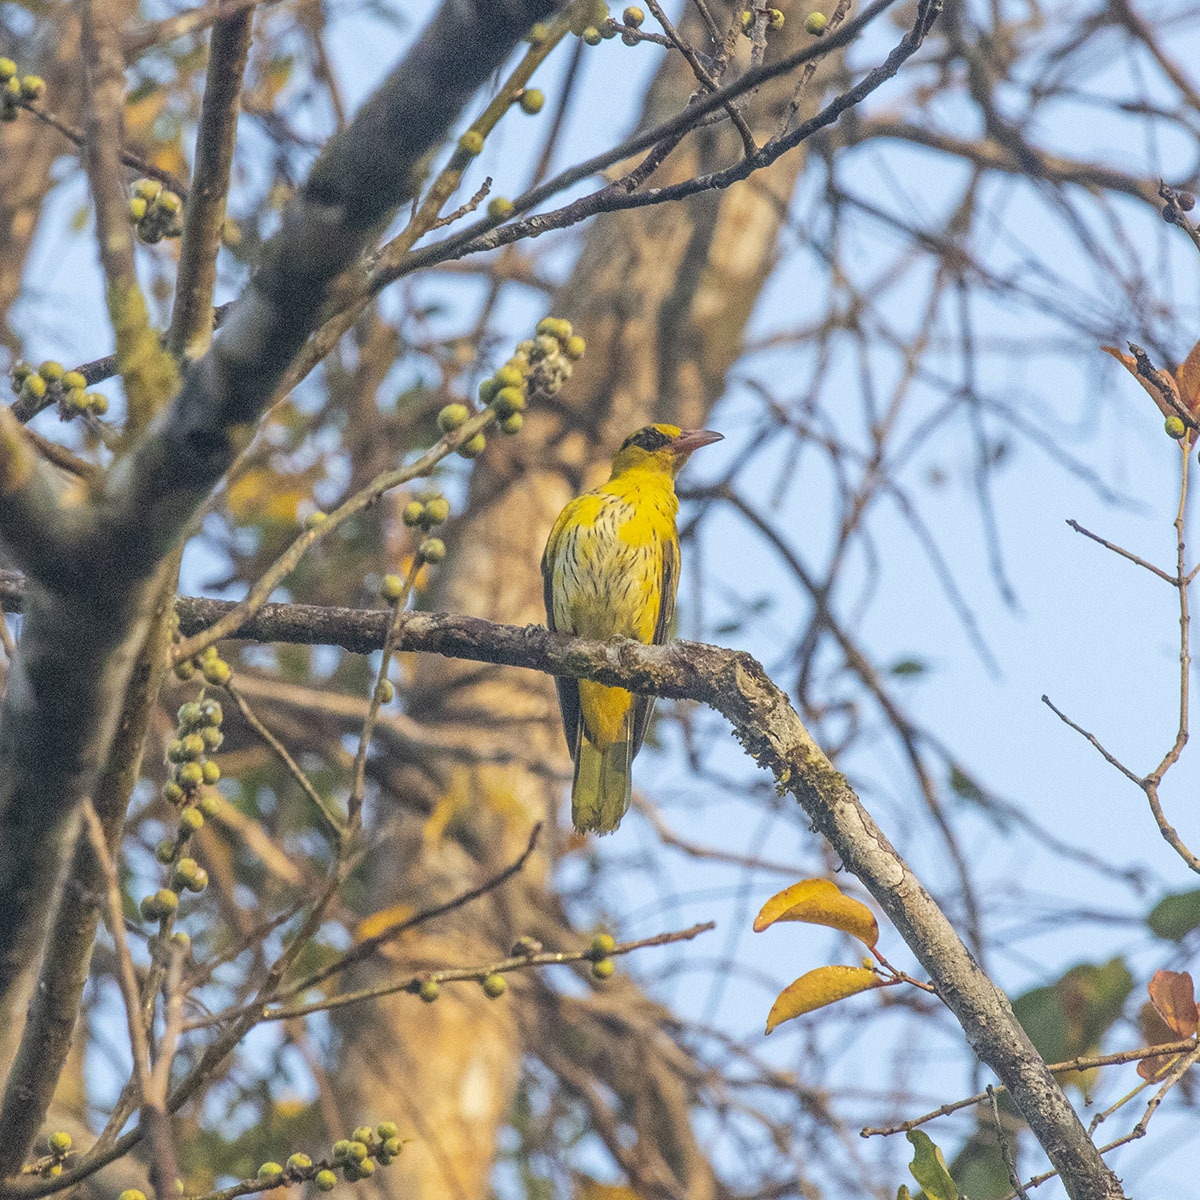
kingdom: Animalia
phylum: Chordata
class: Aves
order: Passeriformes
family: Oriolidae
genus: Oriolus
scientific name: Oriolus chinensis
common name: Black-naped oriole
